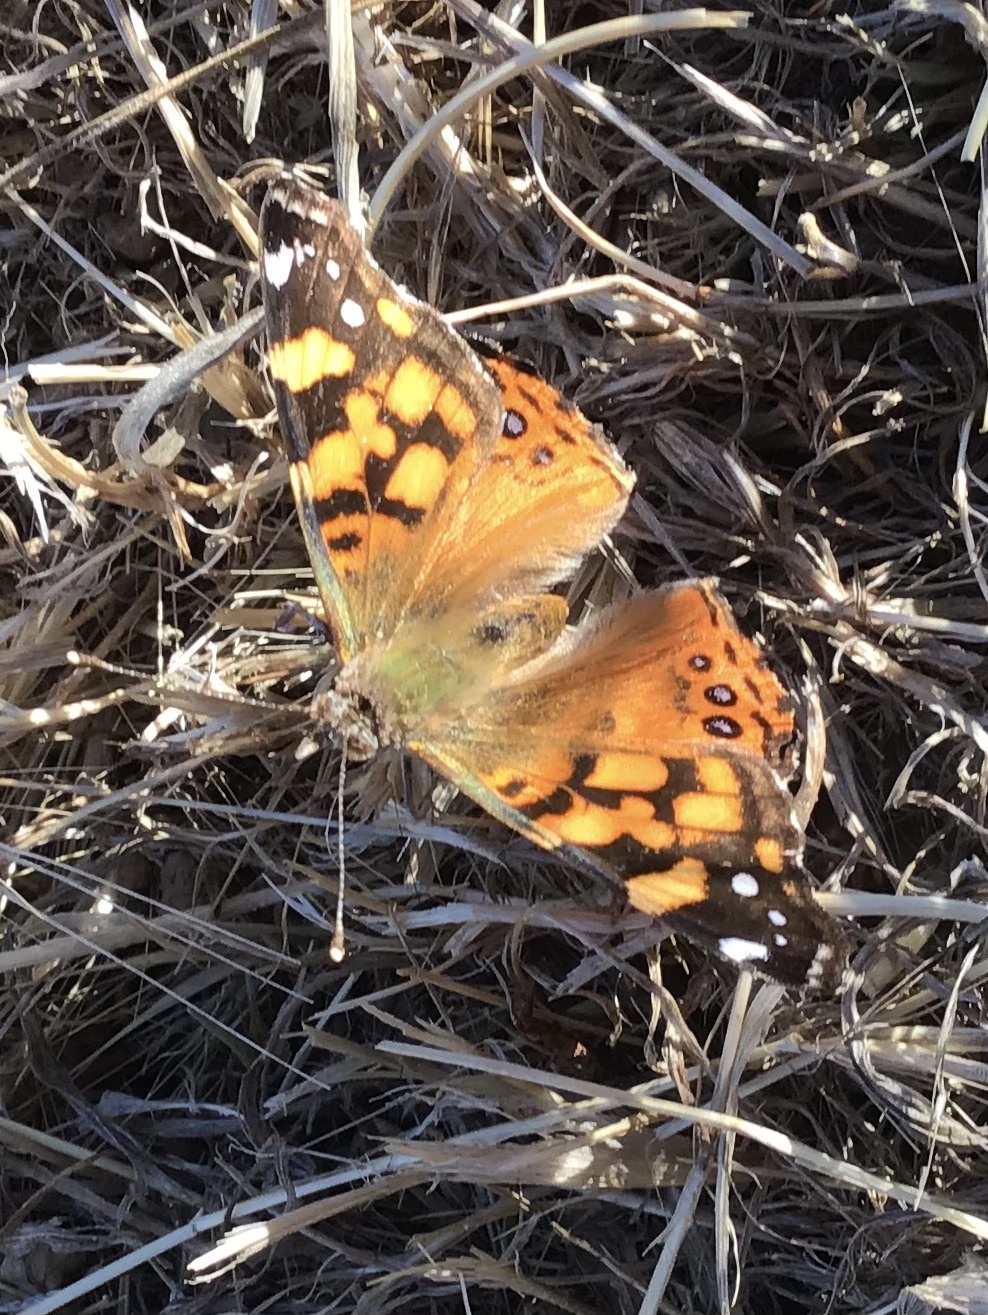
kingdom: Animalia
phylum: Arthropoda
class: Insecta
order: Lepidoptera
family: Nymphalidae
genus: Vanessa
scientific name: Vanessa annabella
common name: West coast lady
